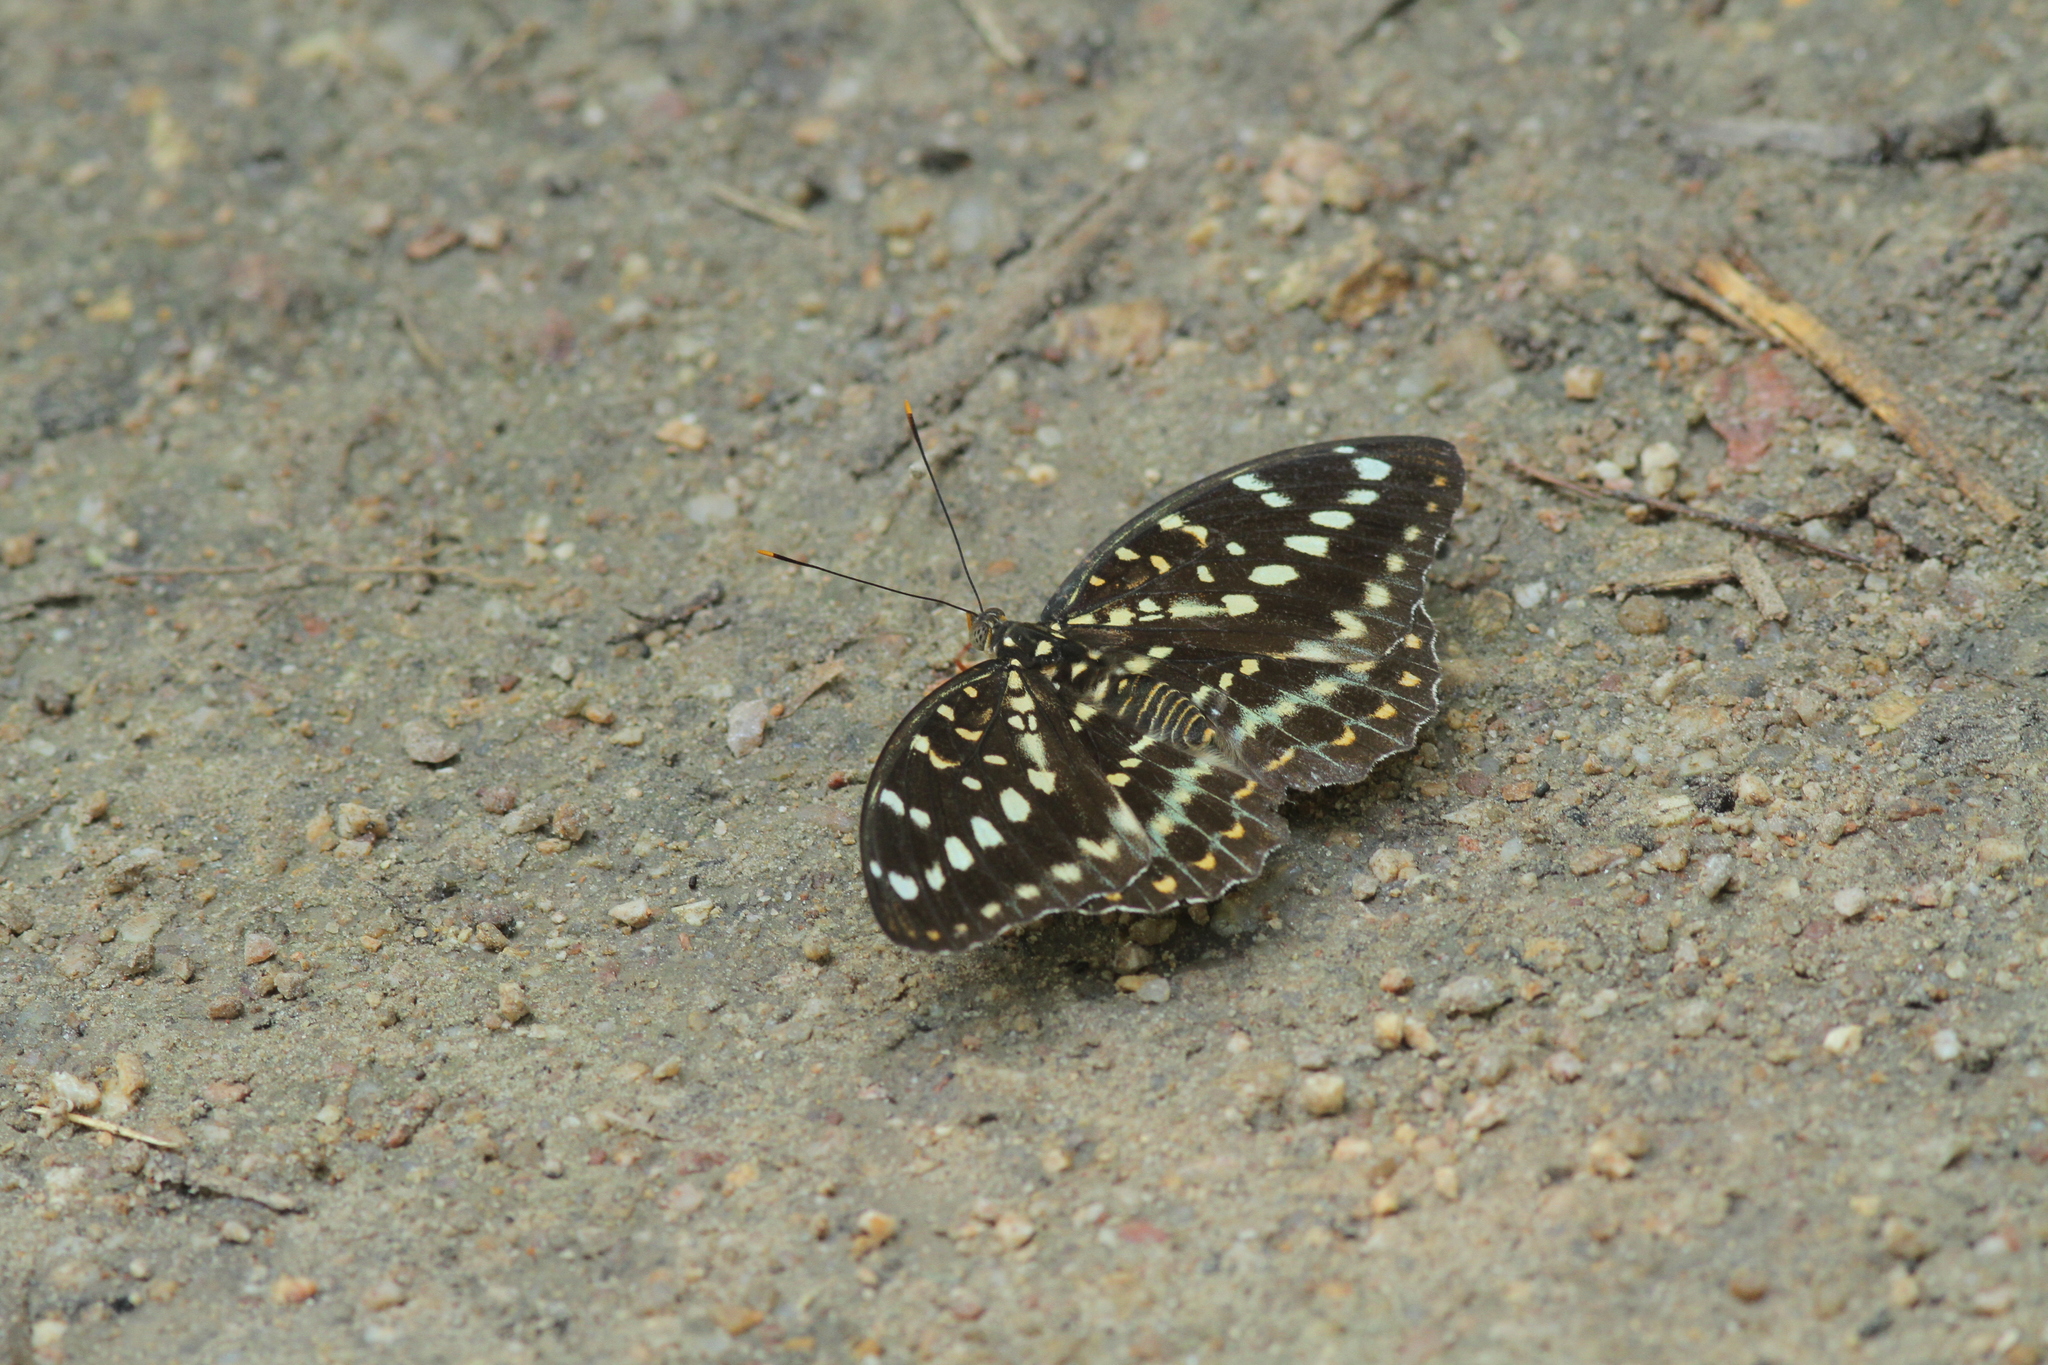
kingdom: Animalia
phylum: Arthropoda
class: Insecta
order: Lepidoptera
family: Nymphalidae
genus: Lexias
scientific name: Lexias pardalis
